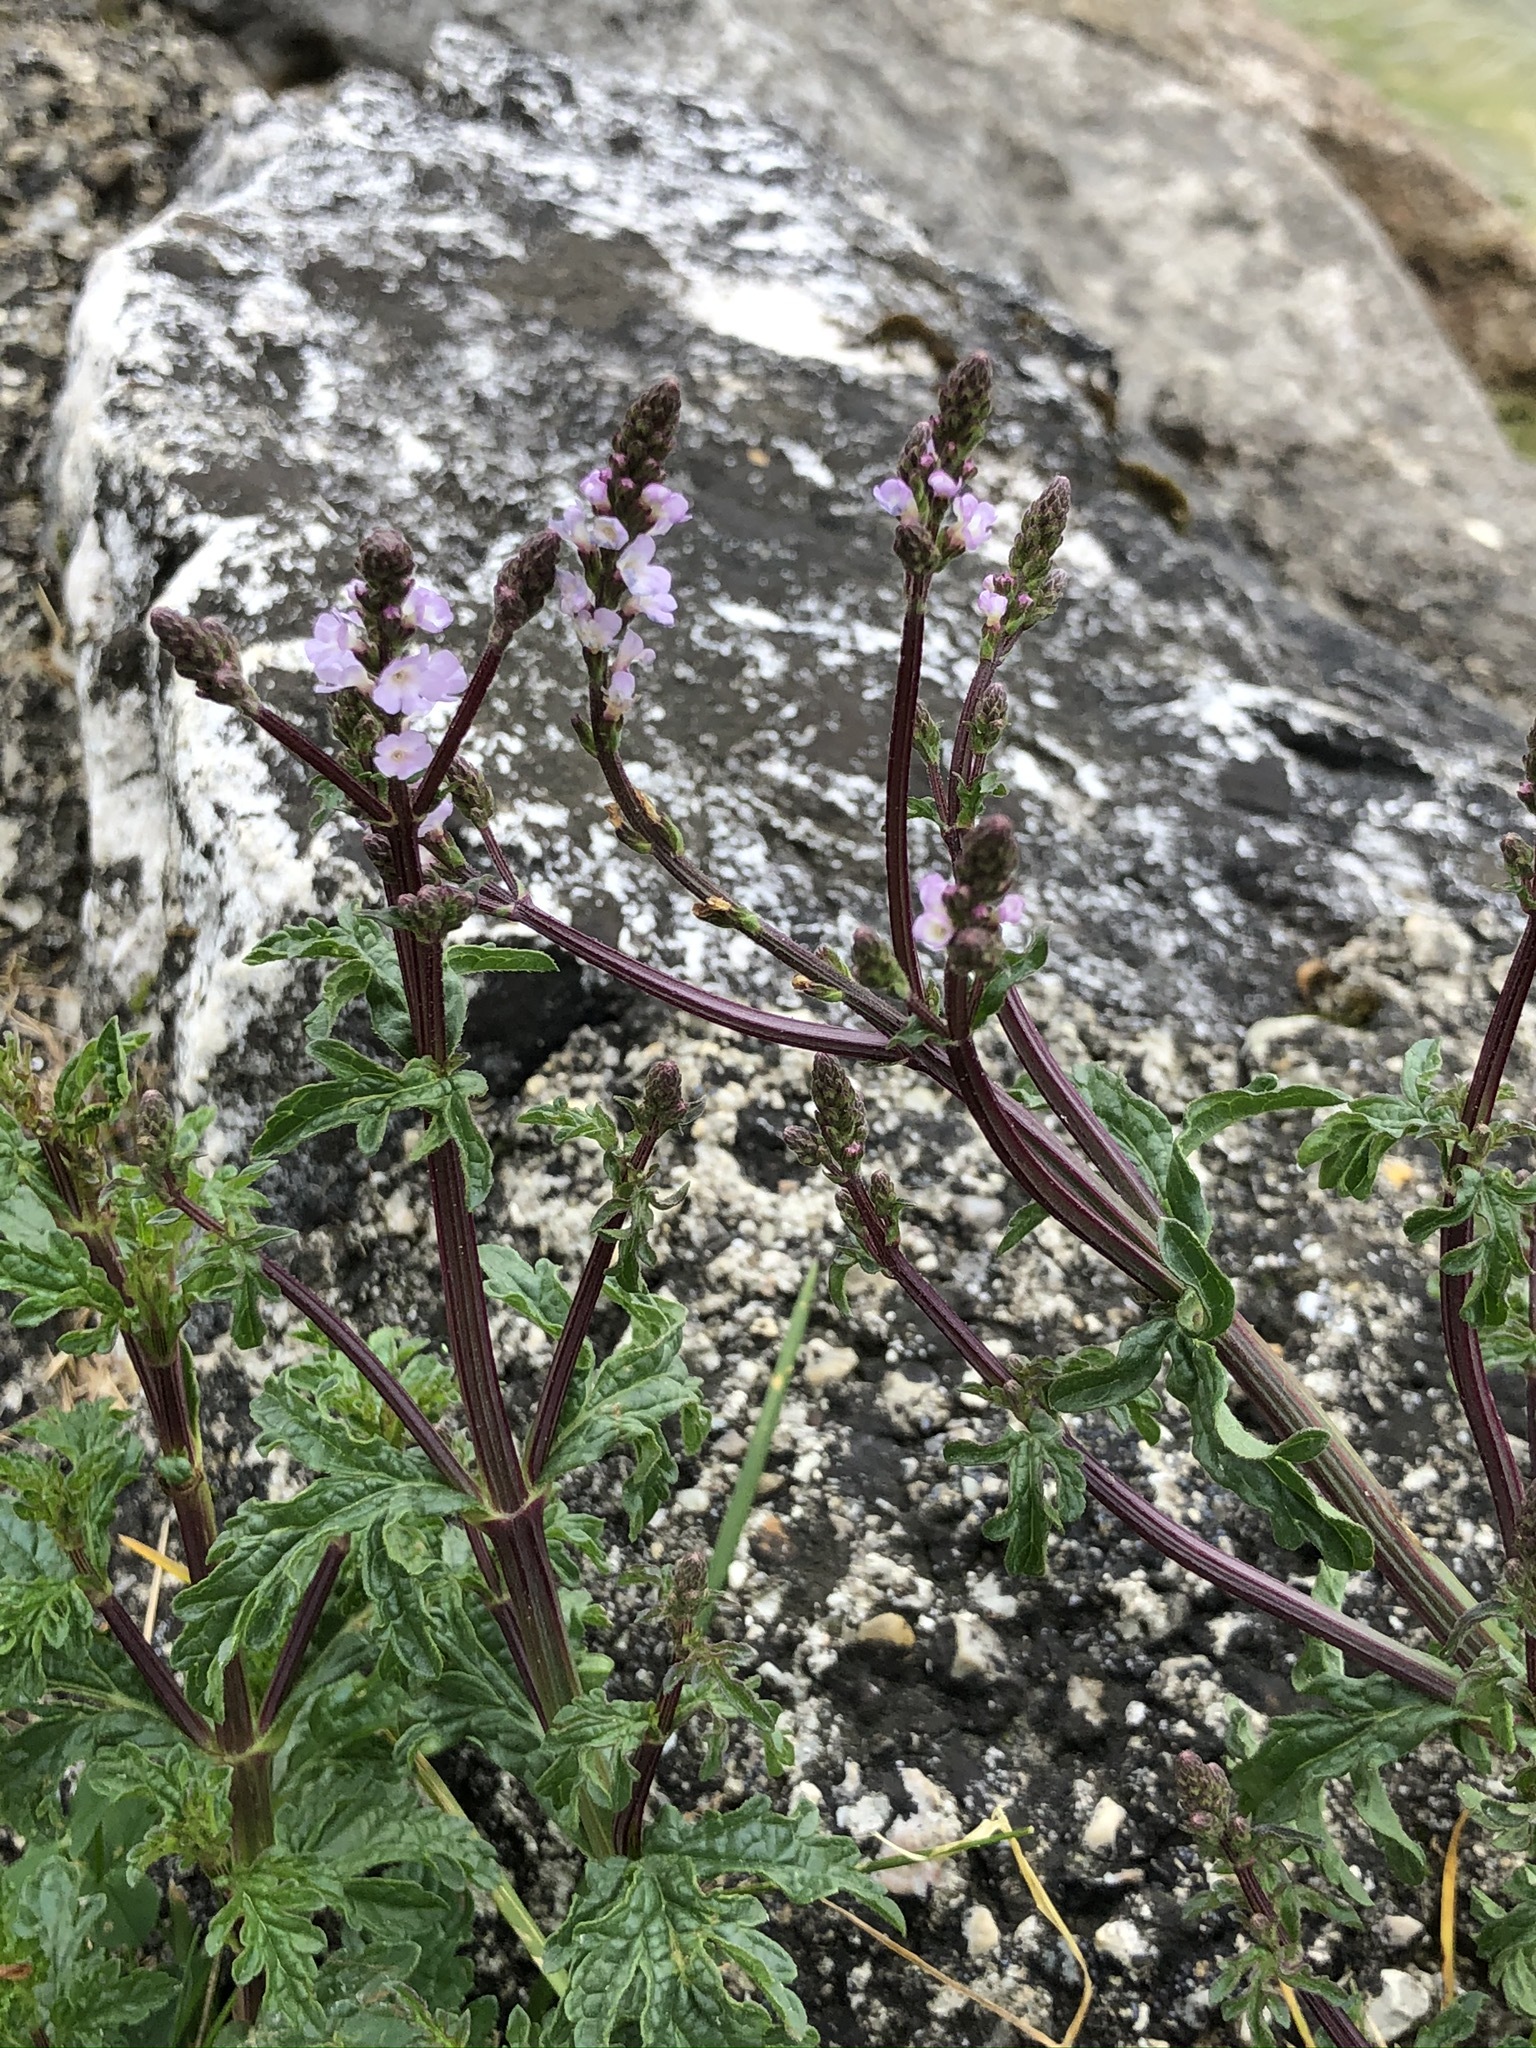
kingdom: Plantae
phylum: Tracheophyta
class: Magnoliopsida
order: Lamiales
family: Verbenaceae
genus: Verbena
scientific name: Verbena officinalis
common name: Vervain
